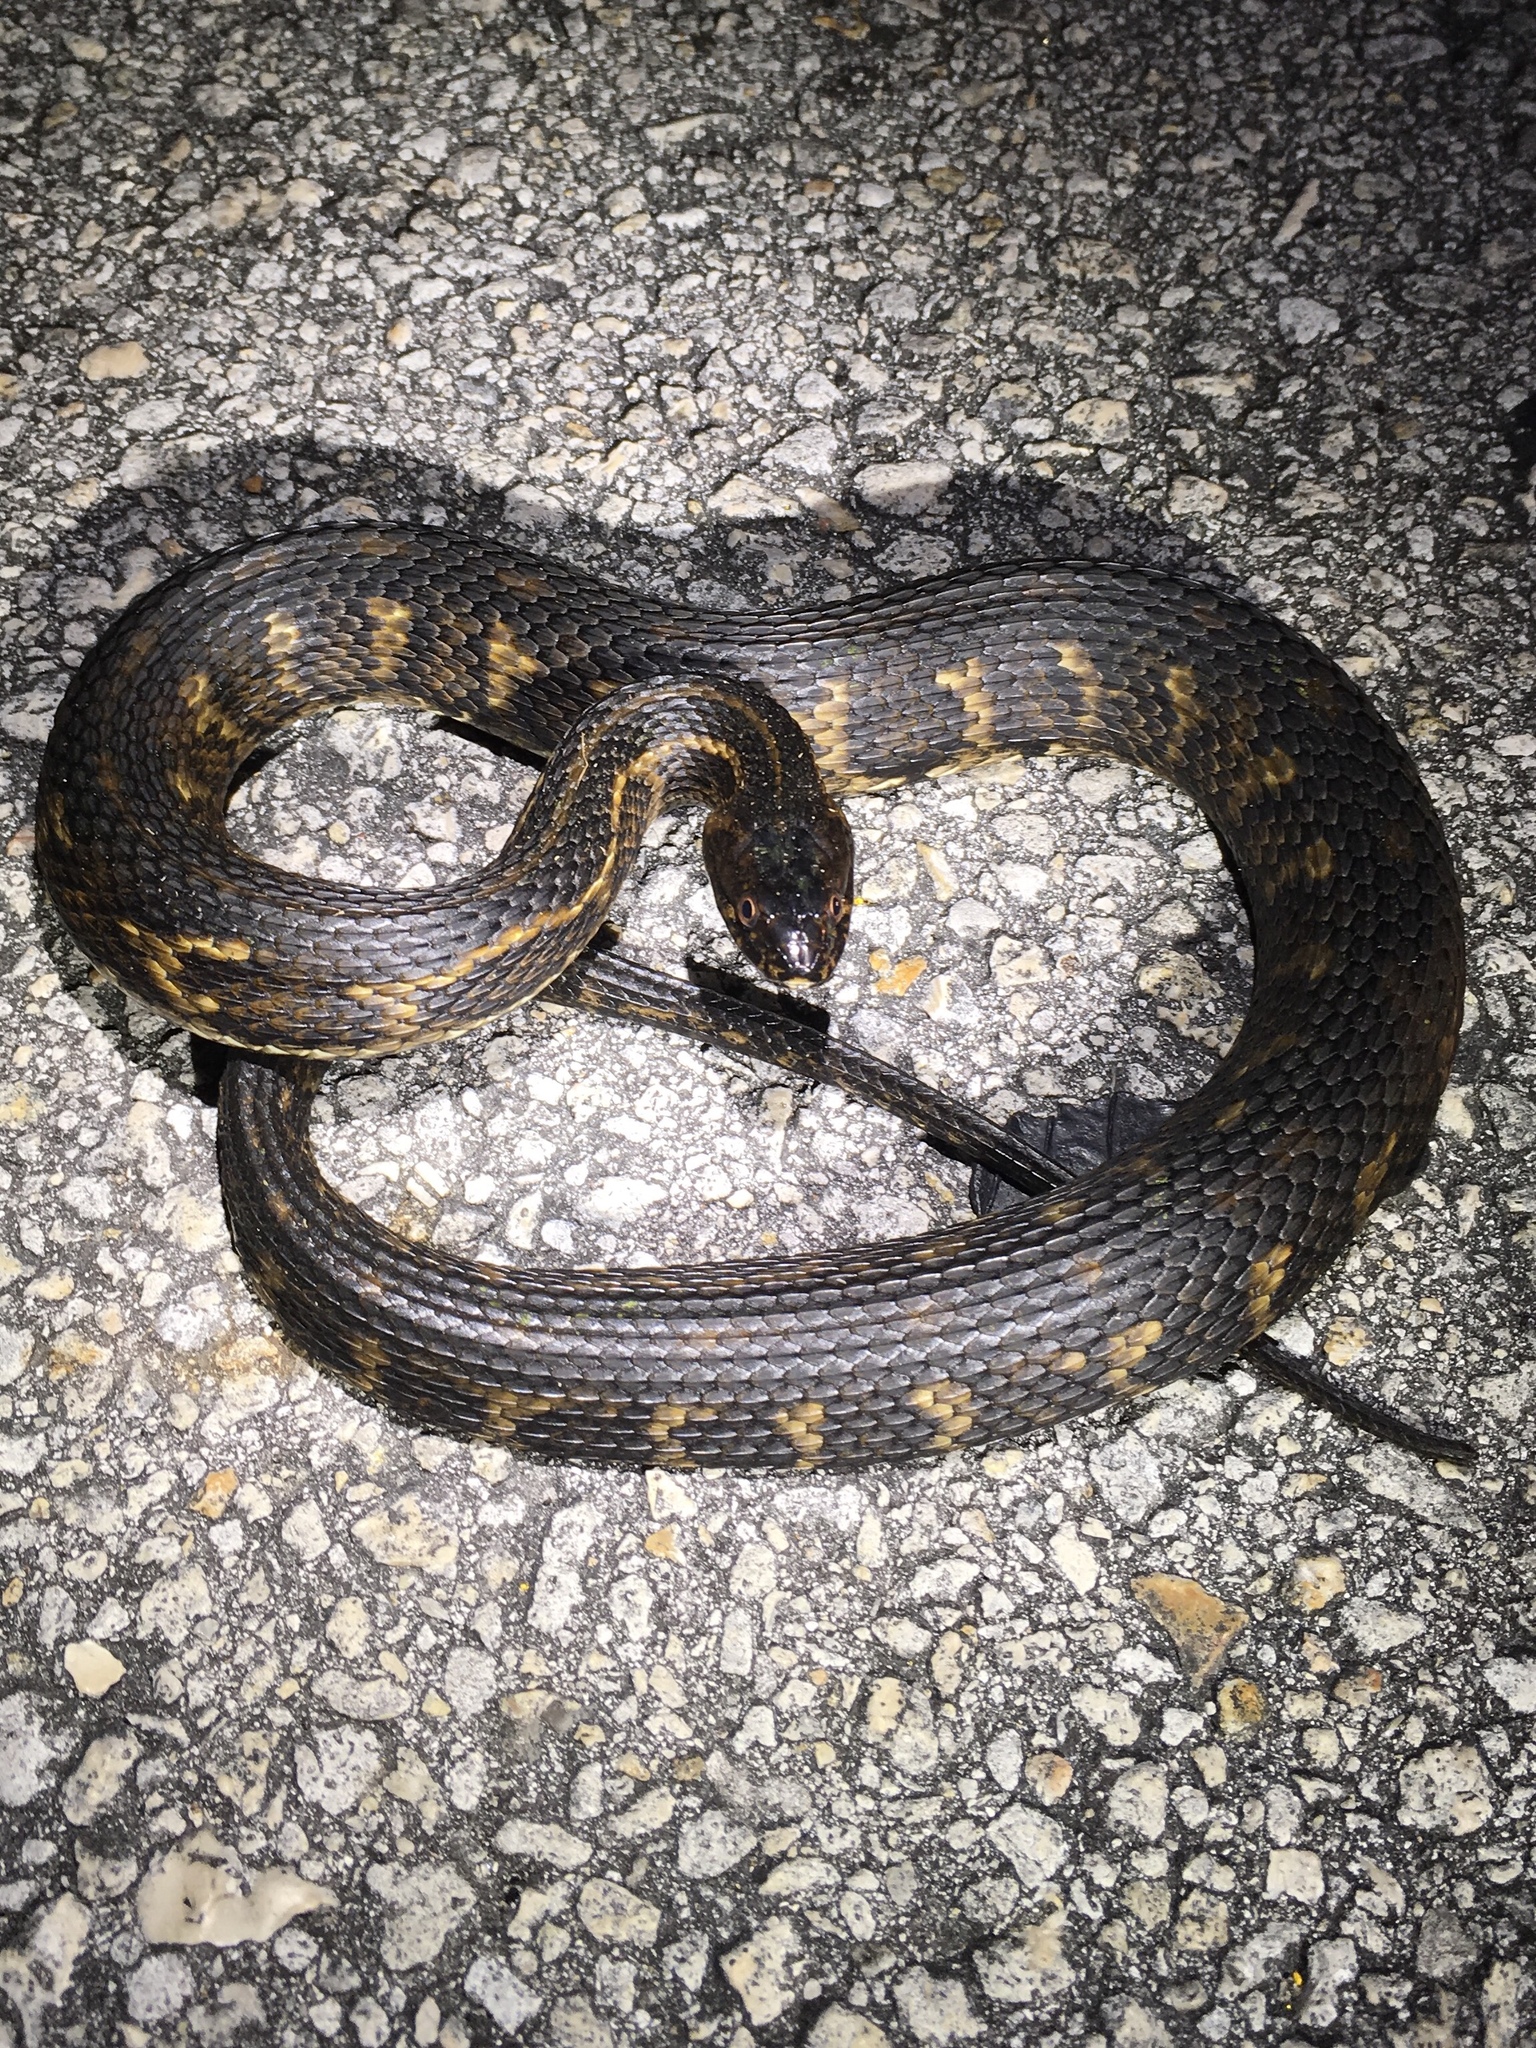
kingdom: Animalia
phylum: Chordata
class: Squamata
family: Colubridae
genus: Nerodia
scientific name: Nerodia clarkii
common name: Atlantic saltmarsh snake
